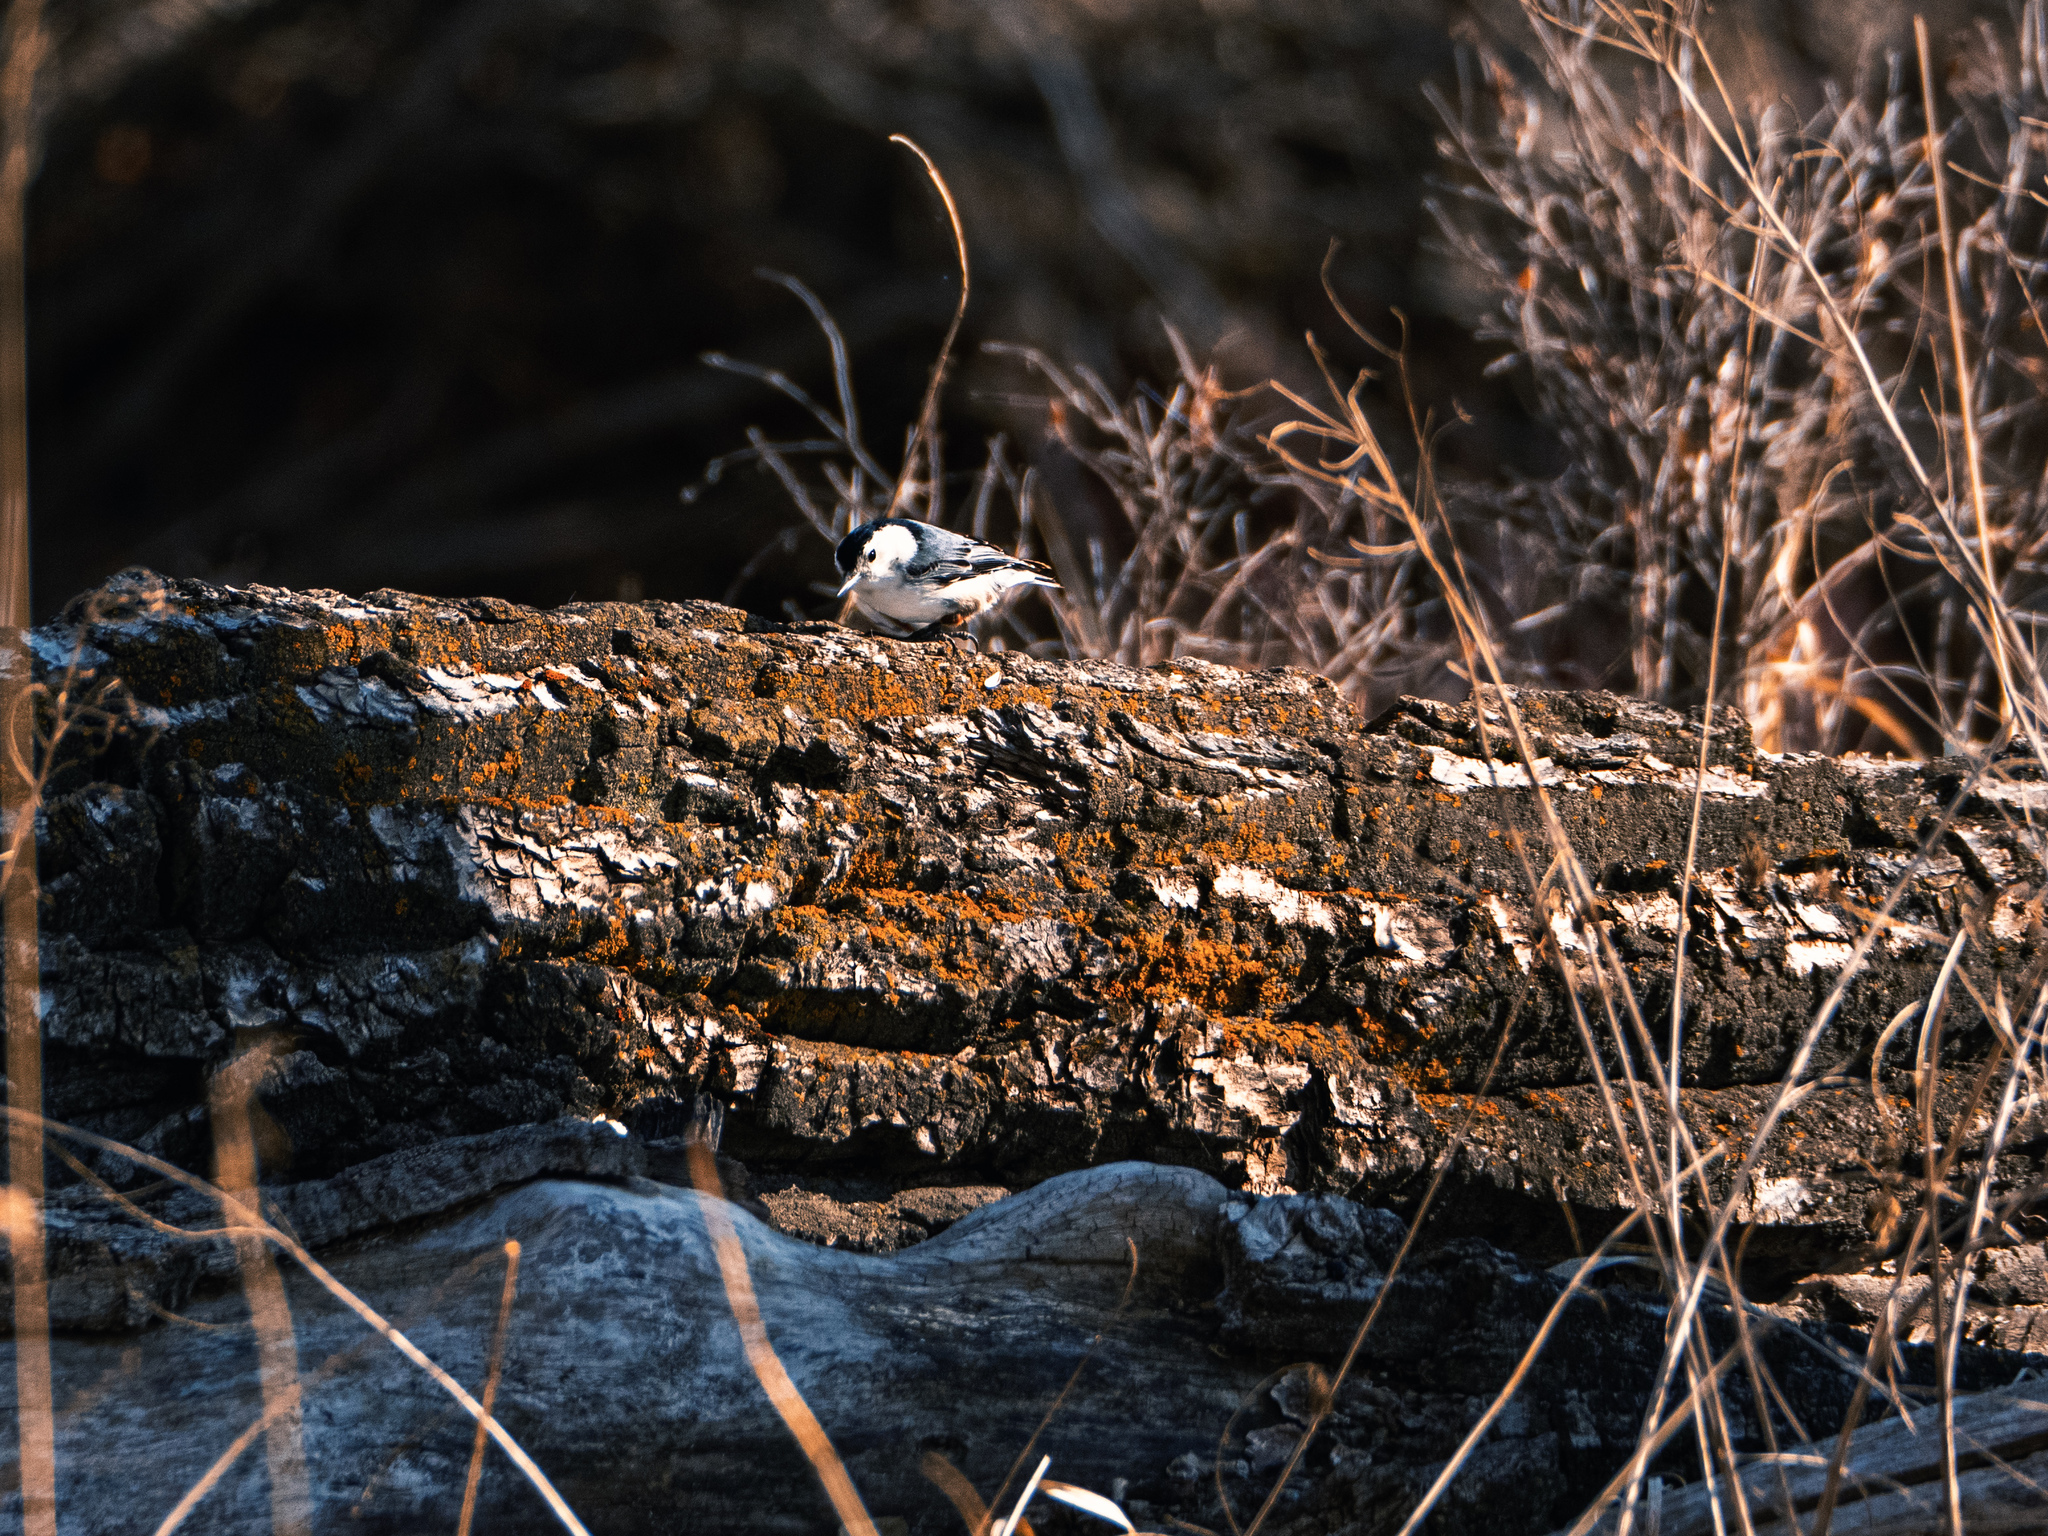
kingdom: Animalia
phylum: Chordata
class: Aves
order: Passeriformes
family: Sittidae
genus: Sitta
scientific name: Sitta carolinensis
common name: White-breasted nuthatch
